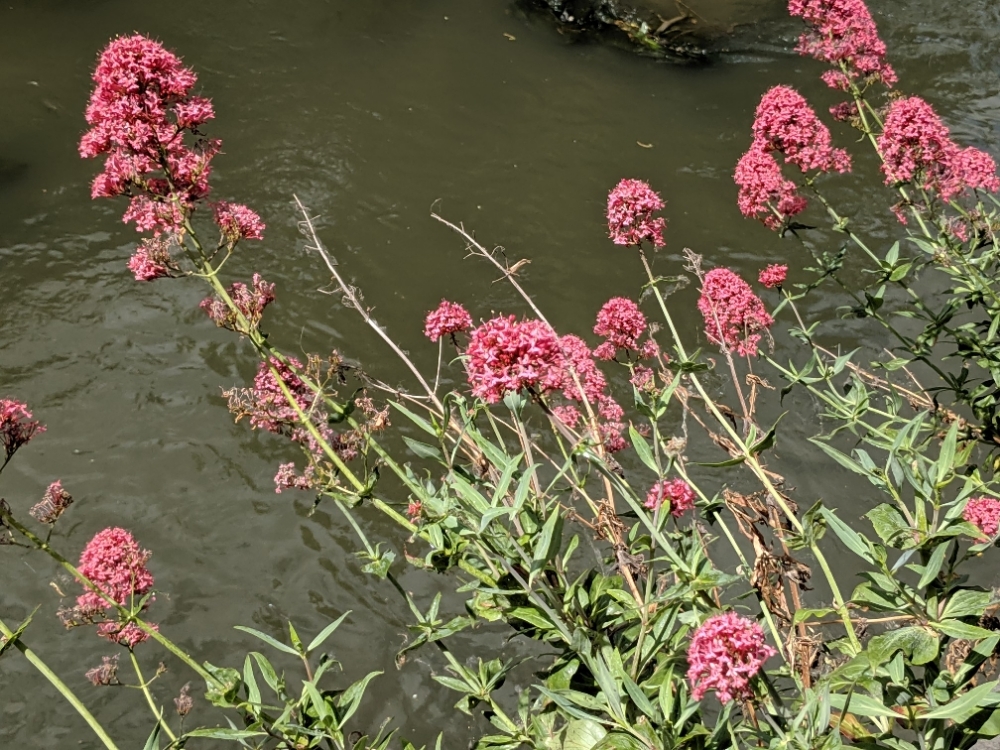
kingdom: Plantae
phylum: Tracheophyta
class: Magnoliopsida
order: Dipsacales
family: Caprifoliaceae
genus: Centranthus
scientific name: Centranthus ruber
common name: Red valerian
